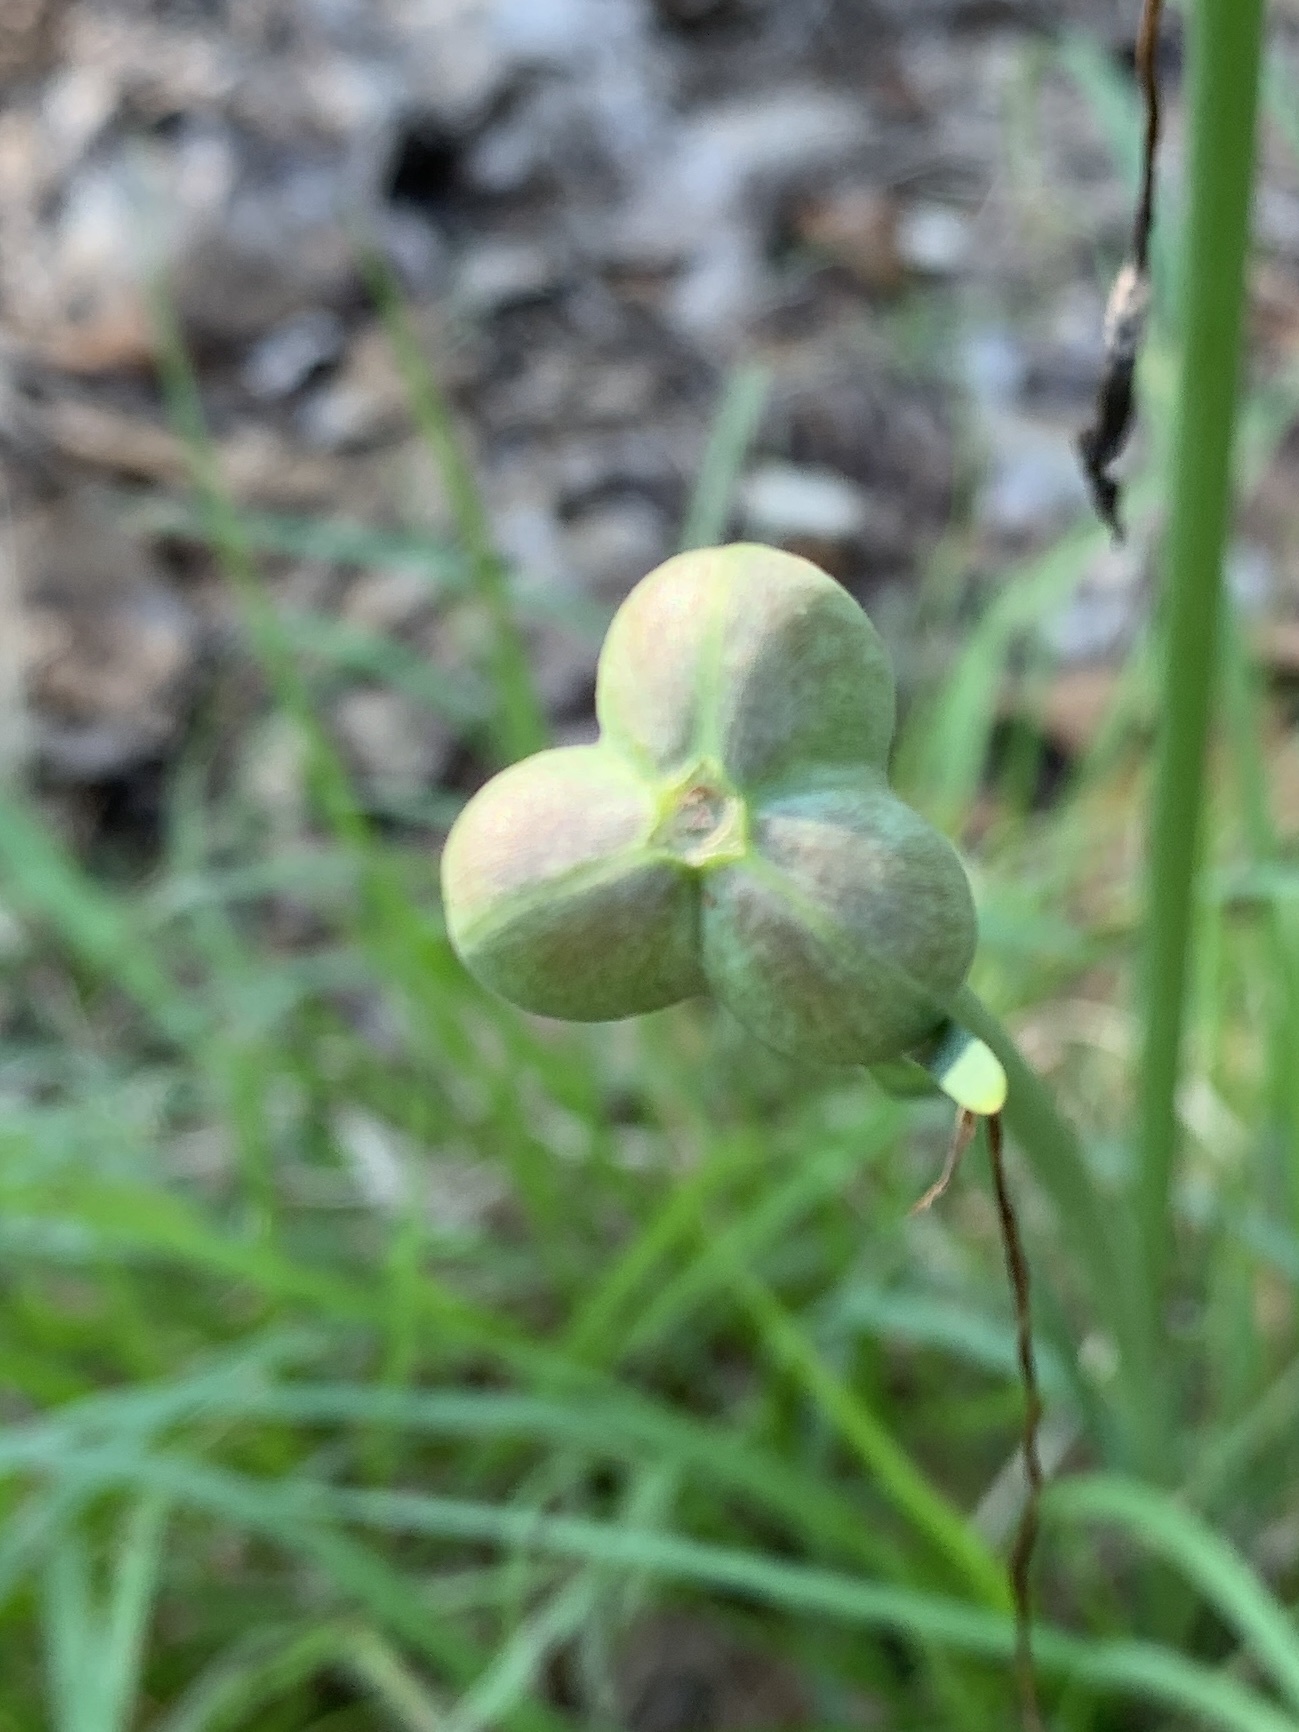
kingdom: Plantae
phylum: Tracheophyta
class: Liliopsida
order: Asparagales
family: Amaryllidaceae
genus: Zephyranthes
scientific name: Zephyranthes chlorosolen
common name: Evening rain-lily
